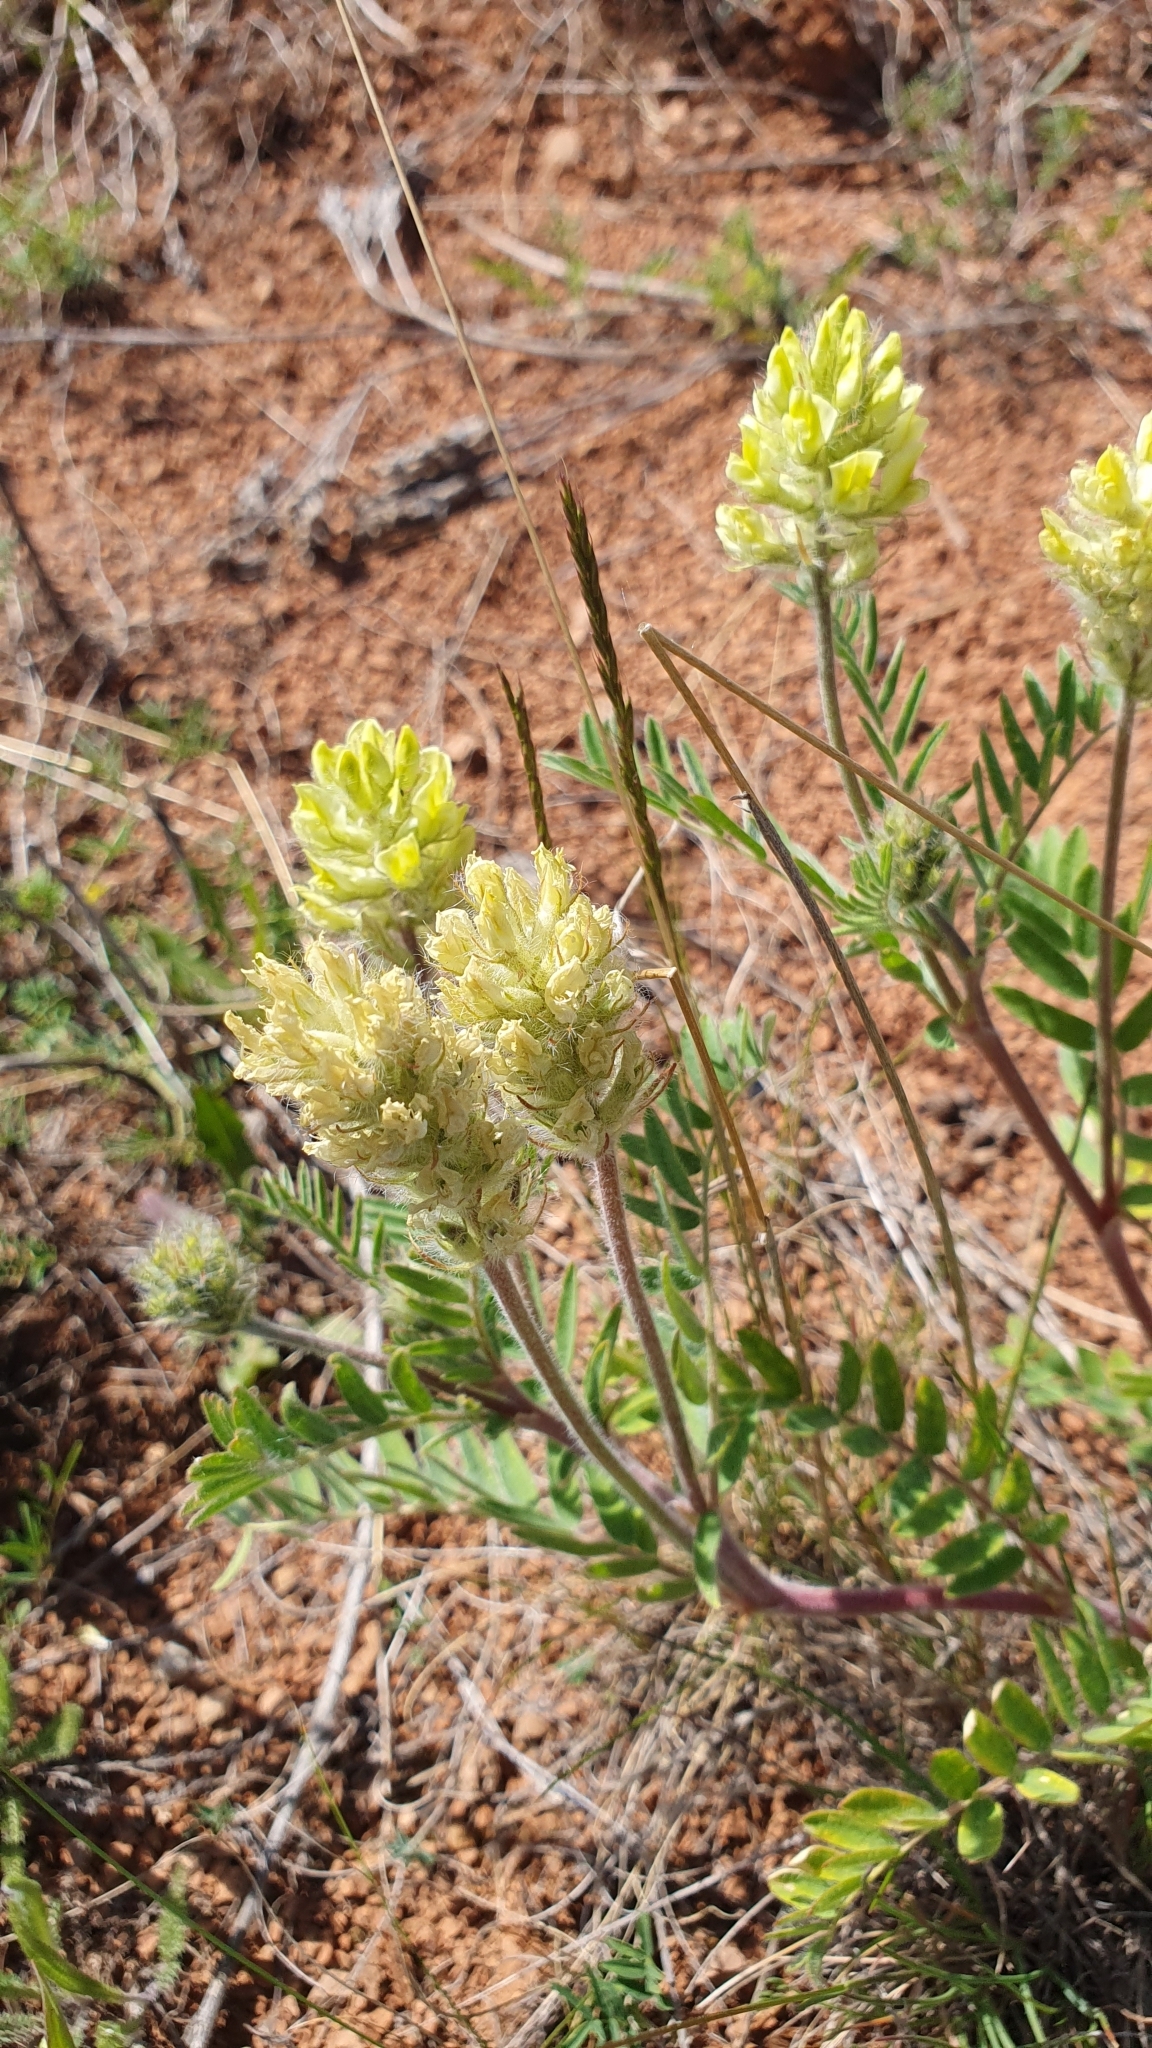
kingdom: Plantae
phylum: Tracheophyta
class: Magnoliopsida
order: Fabales
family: Fabaceae
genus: Oxytropis
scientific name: Oxytropis pilosa
